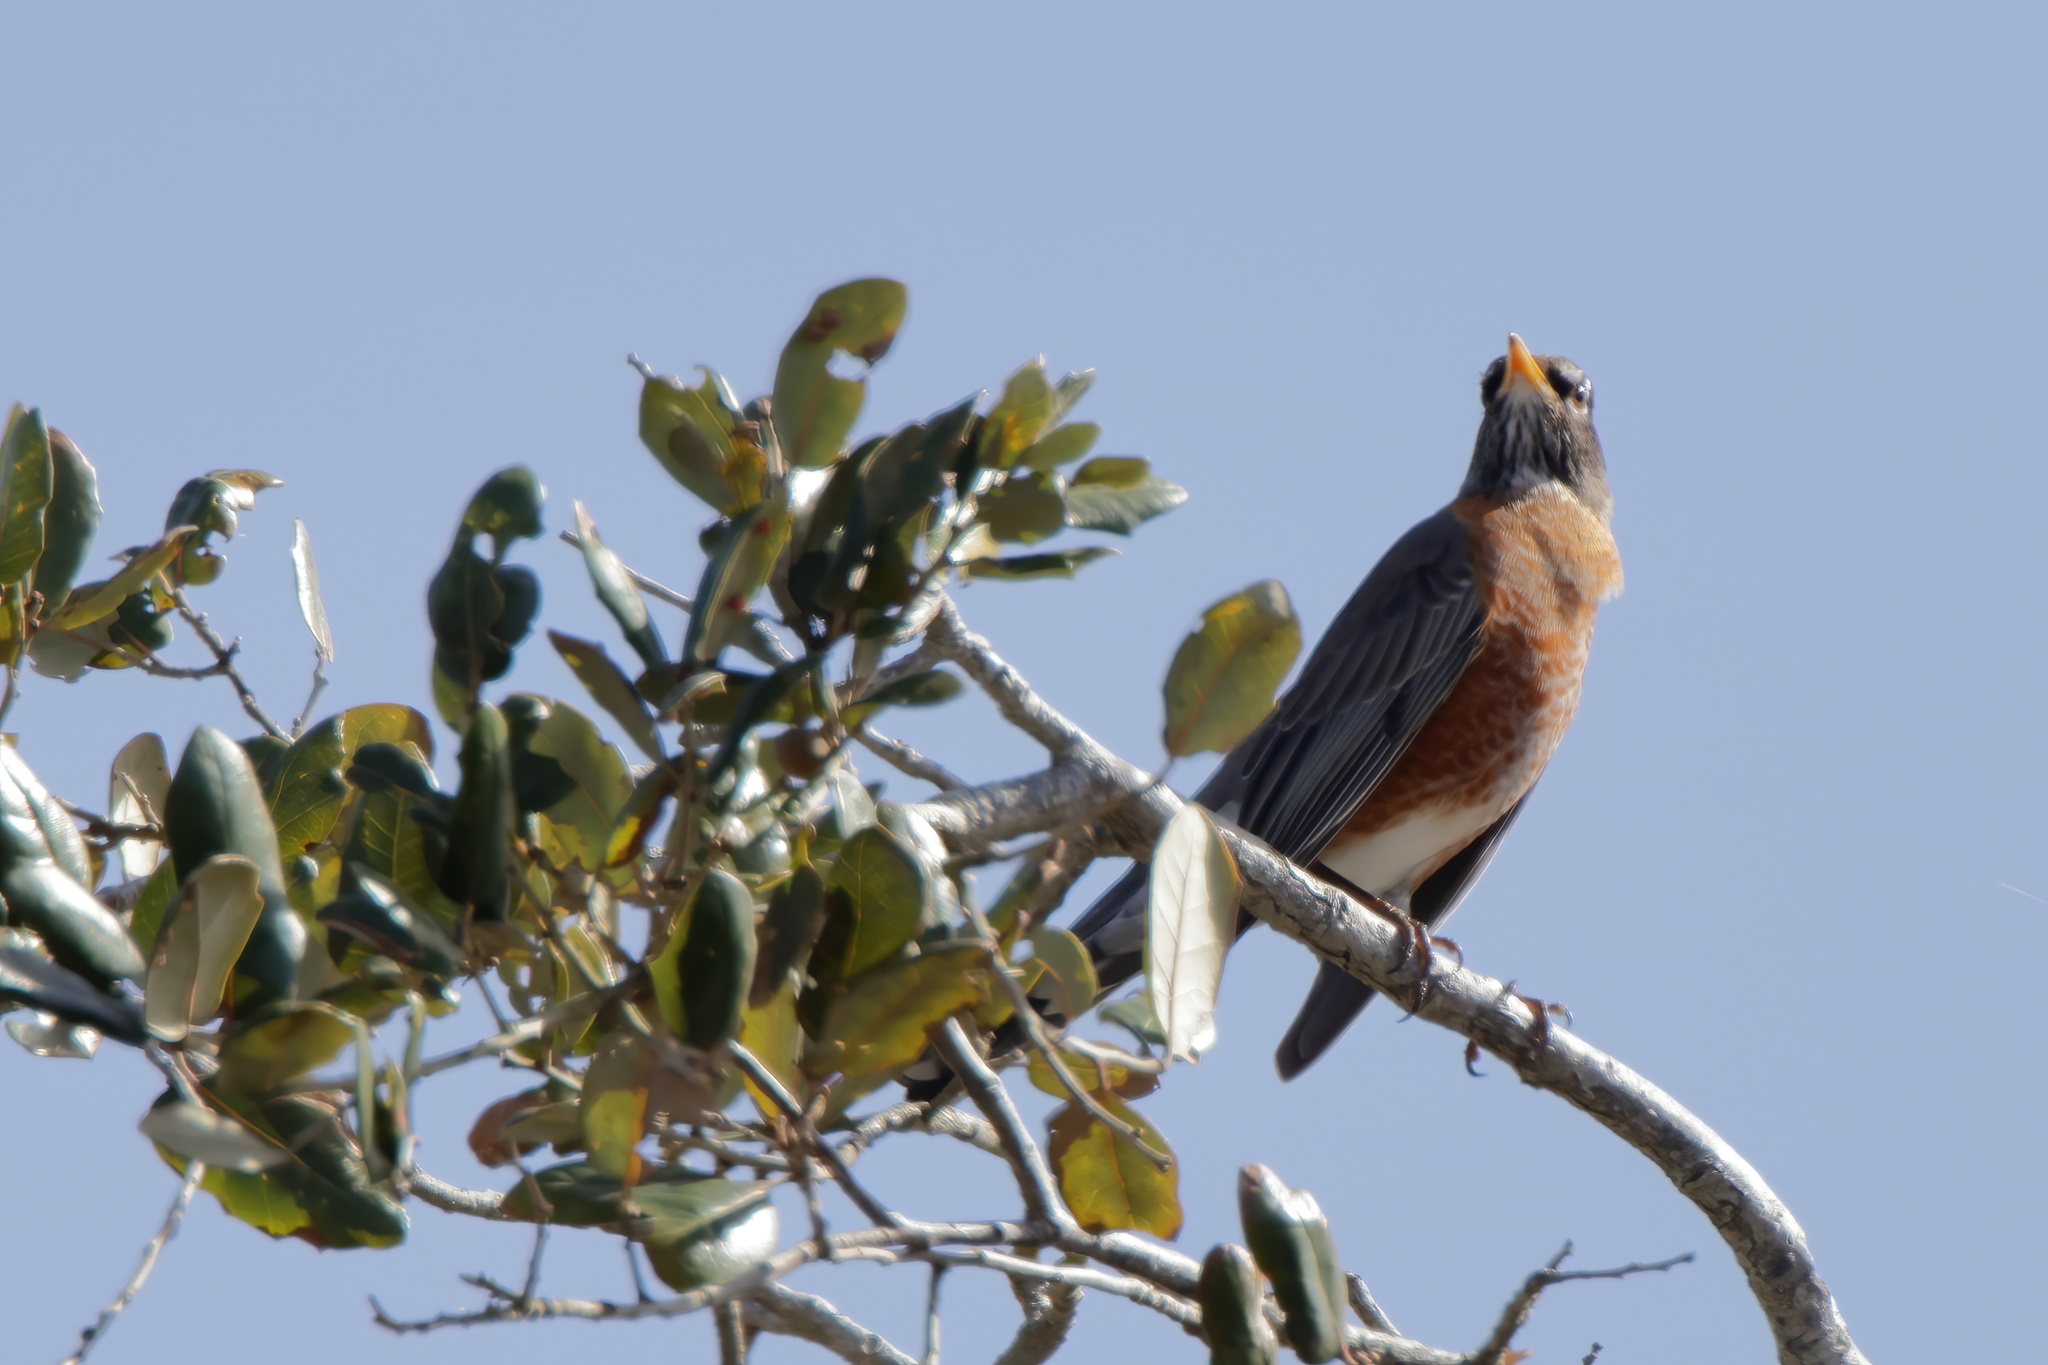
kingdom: Animalia
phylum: Chordata
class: Aves
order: Passeriformes
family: Turdidae
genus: Turdus
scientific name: Turdus migratorius
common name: American robin
